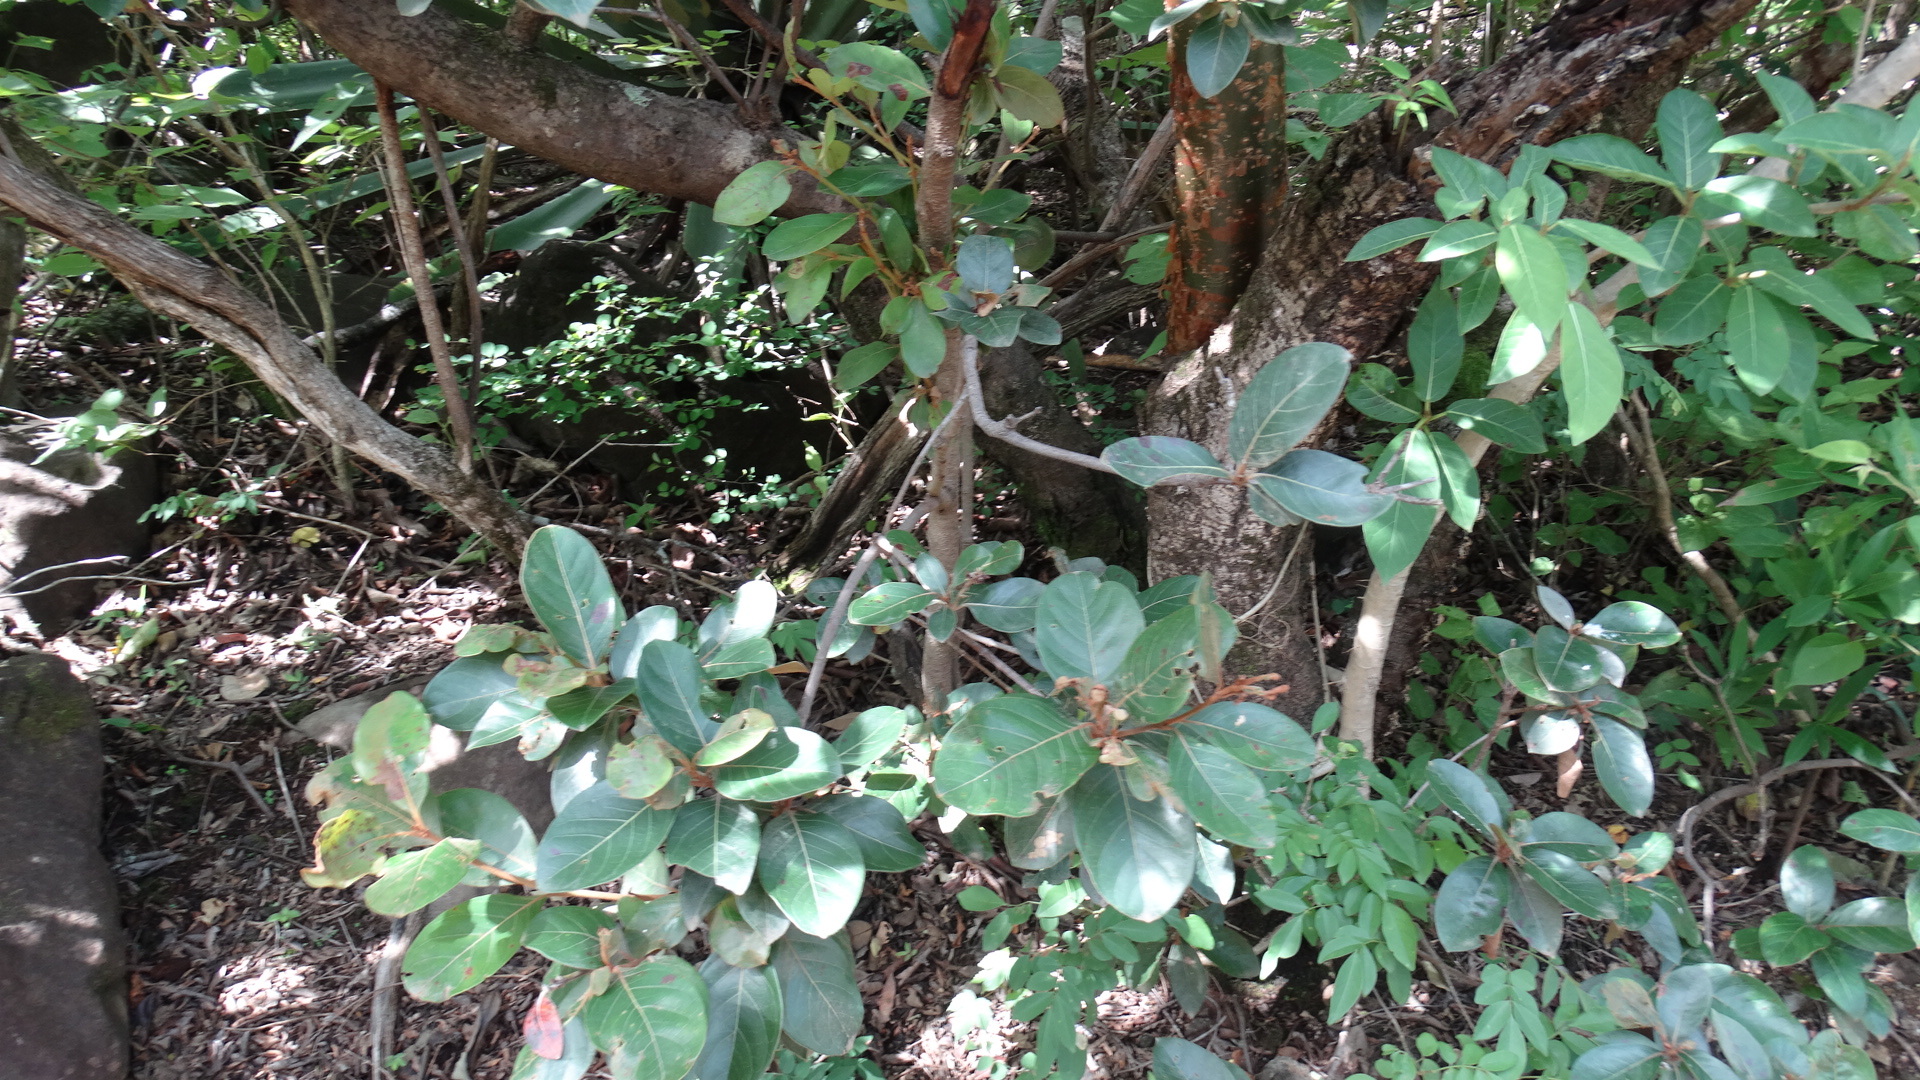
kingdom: Plantae
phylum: Tracheophyta
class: Magnoliopsida
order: Myrtales
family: Myrtaceae
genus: Psidium
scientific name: Psidium cattleianum
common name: Strawberry guava
